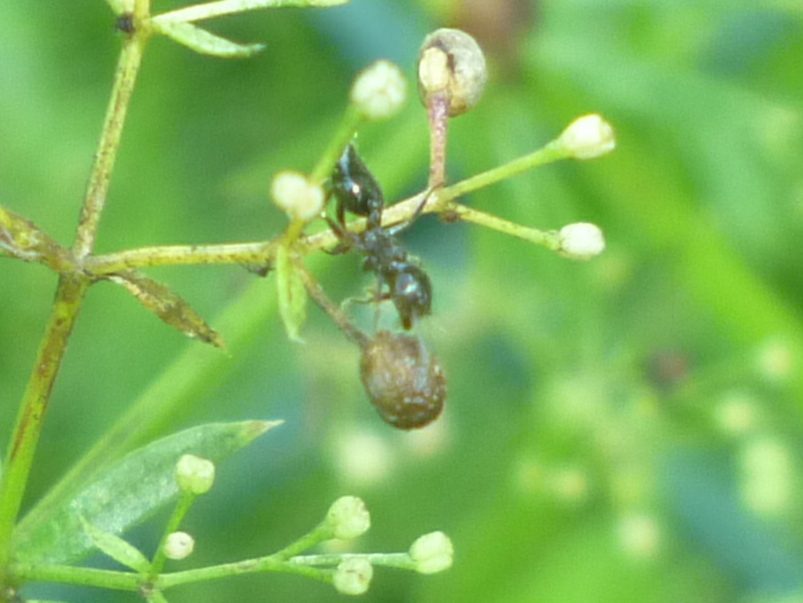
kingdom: Animalia
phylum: Arthropoda
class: Insecta
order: Hymenoptera
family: Formicidae
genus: Crematogaster
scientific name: Crematogaster
